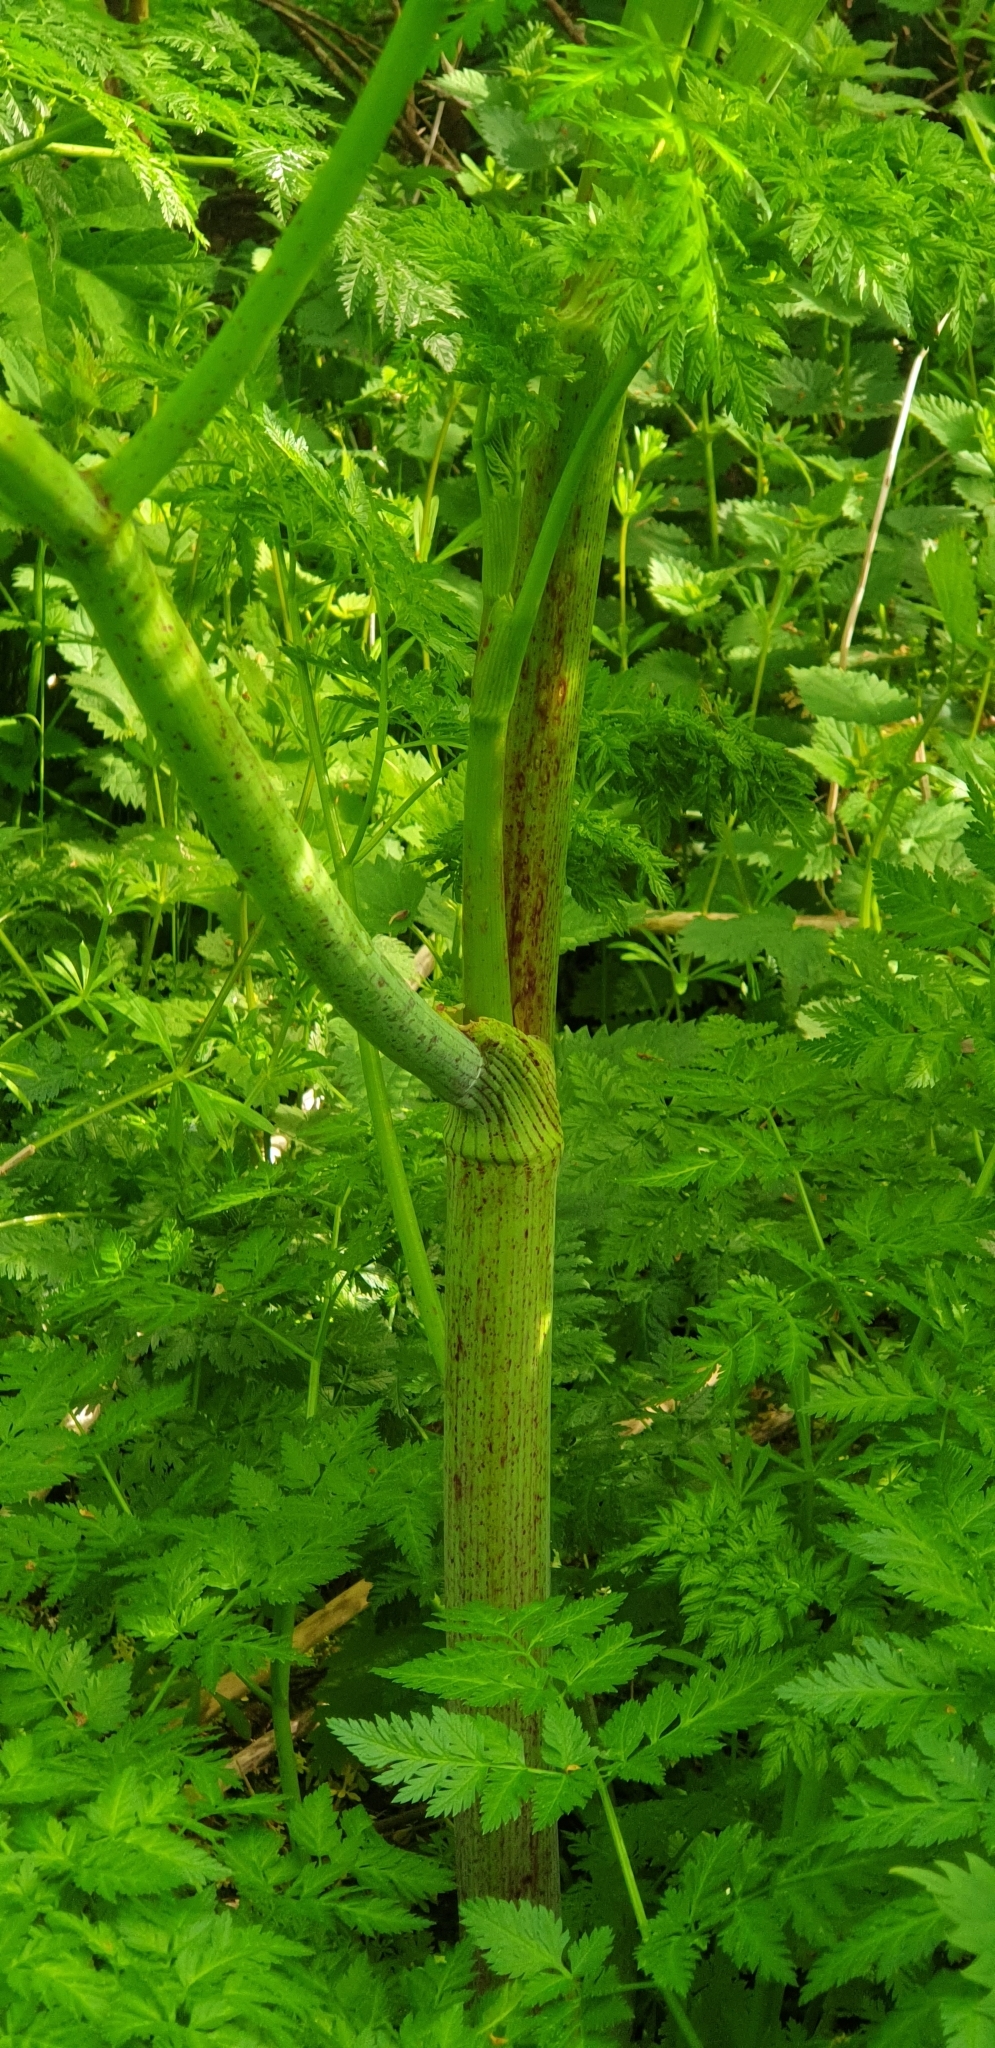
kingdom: Plantae
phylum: Tracheophyta
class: Magnoliopsida
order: Apiales
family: Apiaceae
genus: Conium
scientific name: Conium maculatum
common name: Hemlock
